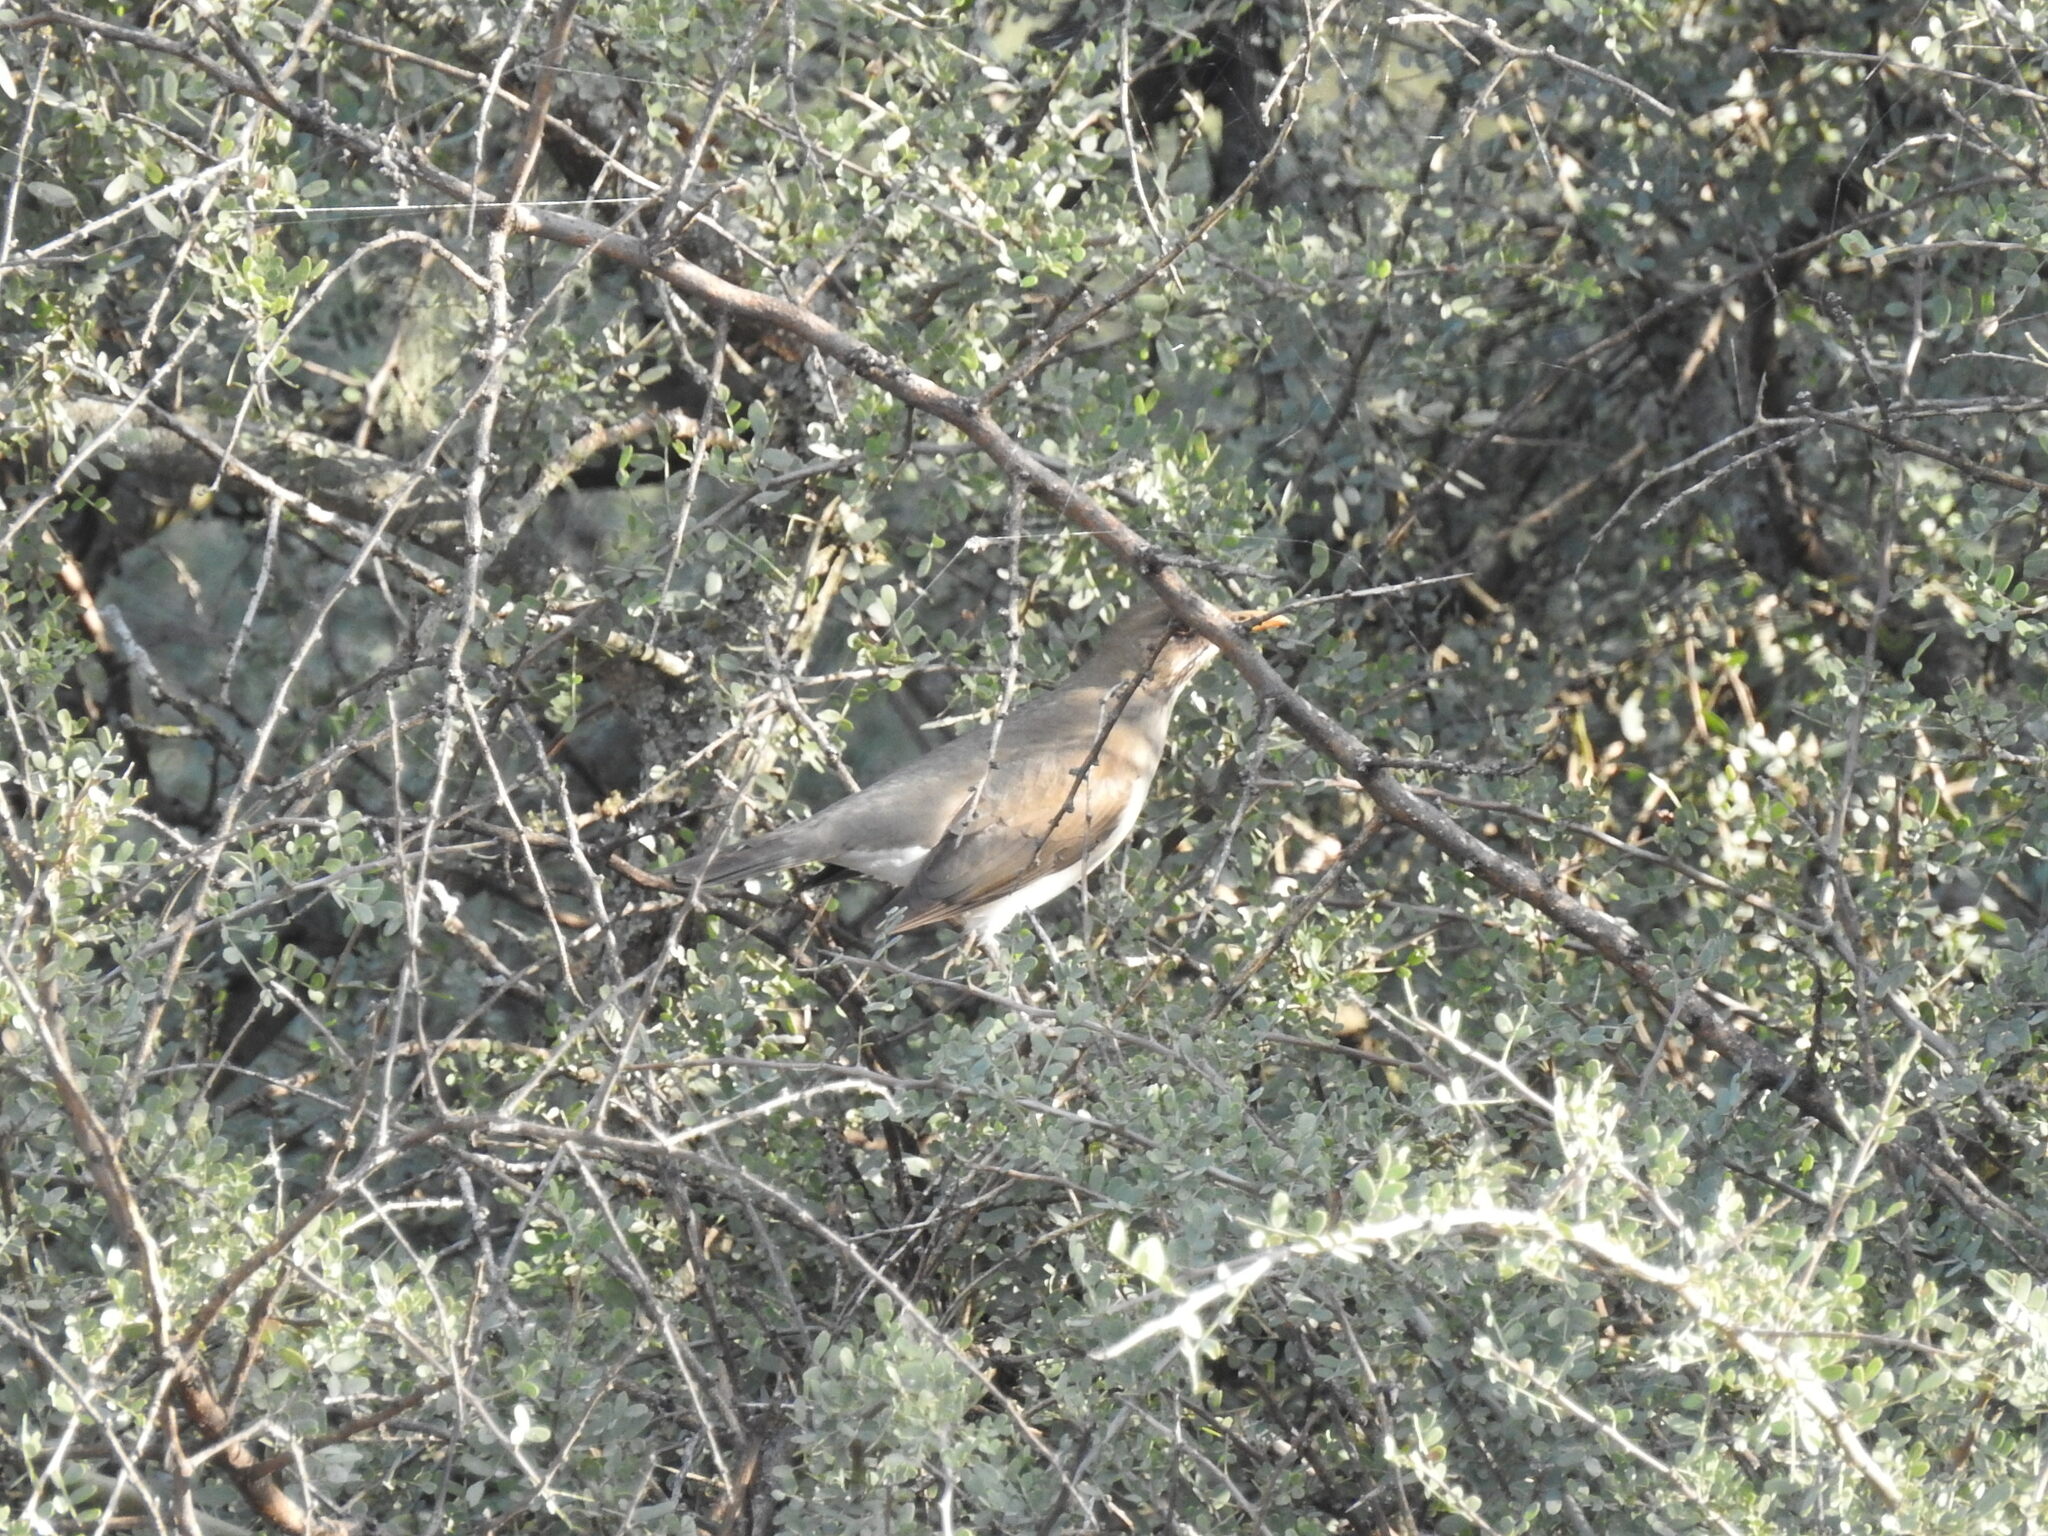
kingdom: Animalia
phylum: Chordata
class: Aves
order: Passeriformes
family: Turdidae
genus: Turdus
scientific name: Turdus amaurochalinus
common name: Creamy-bellied thrush
